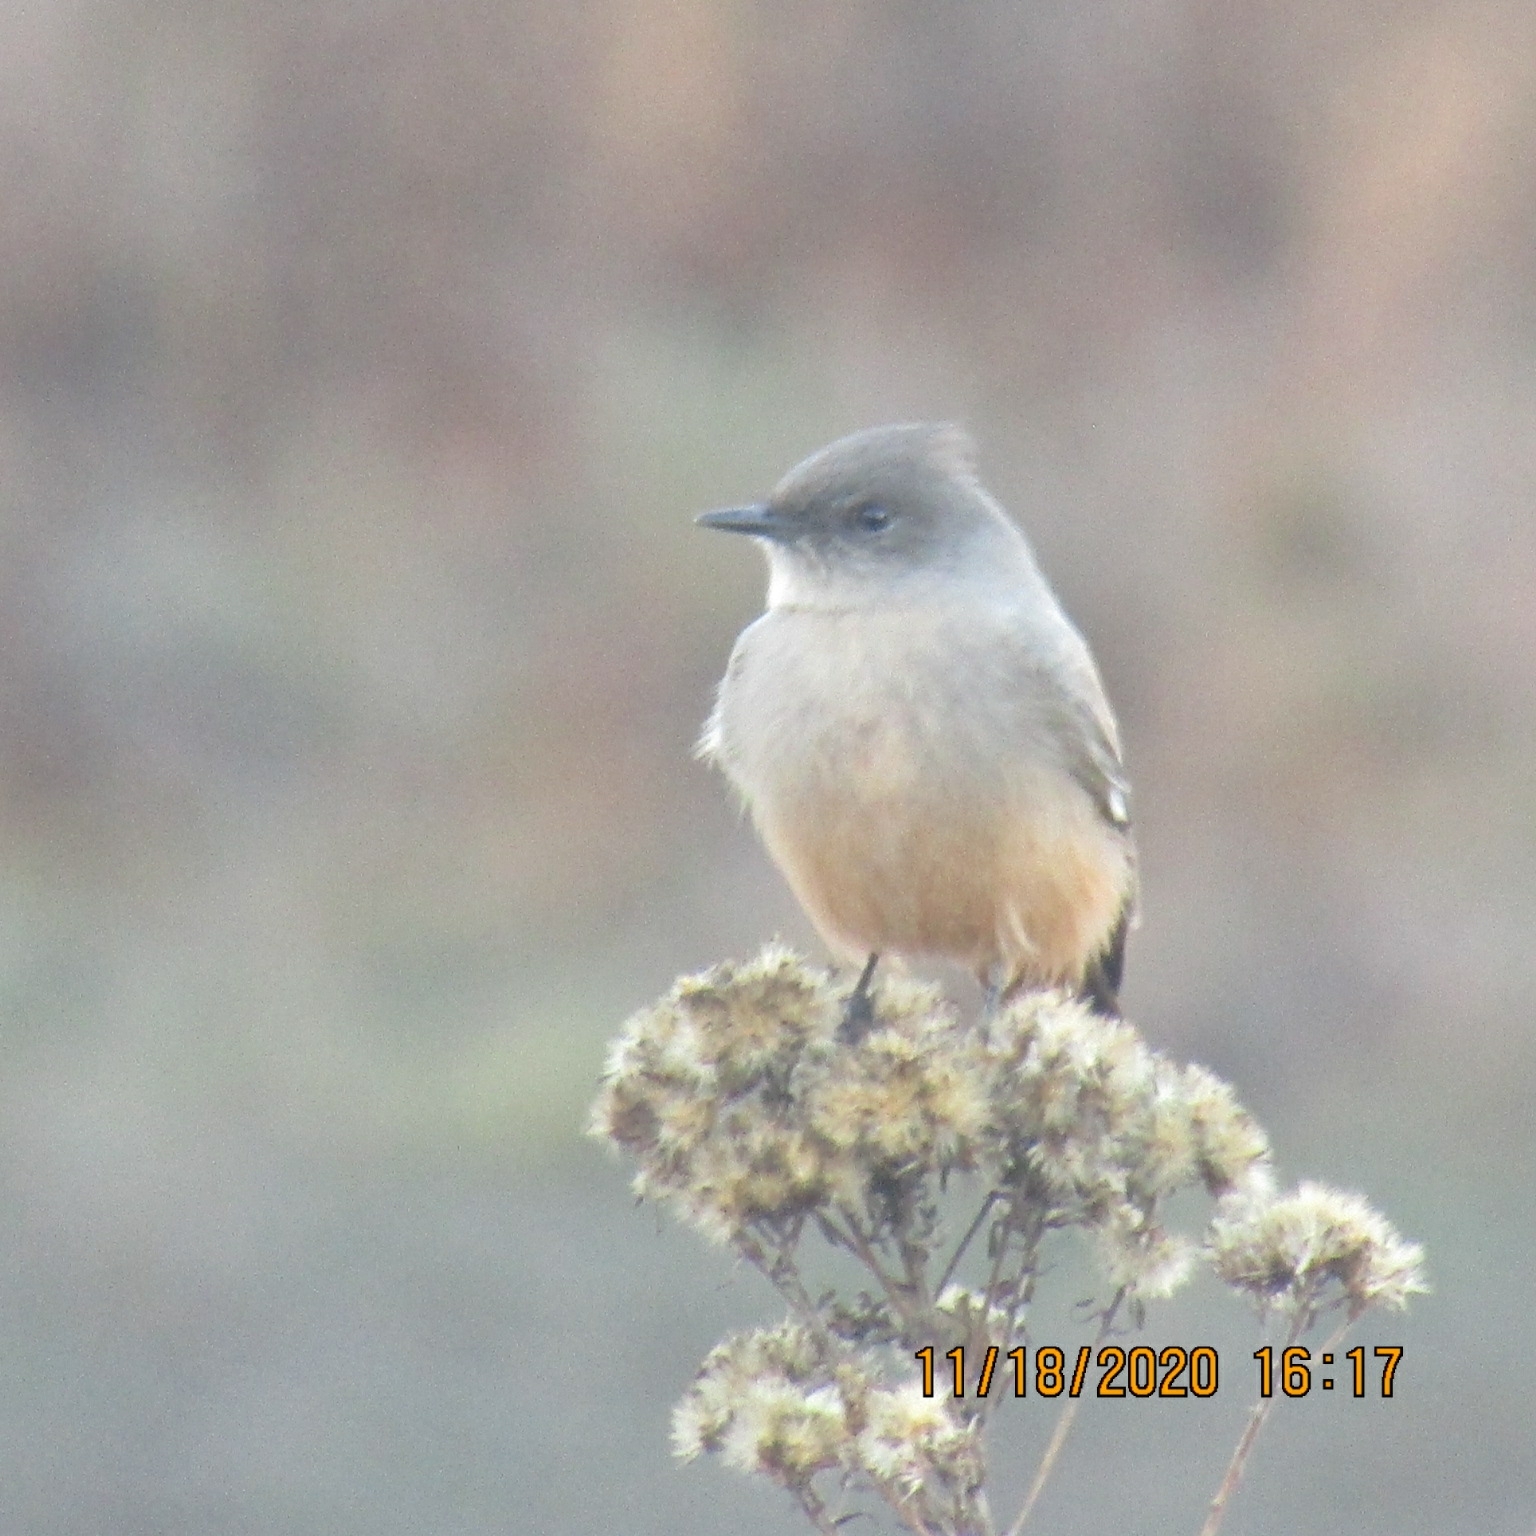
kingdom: Animalia
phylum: Chordata
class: Aves
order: Passeriformes
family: Tyrannidae
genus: Sayornis
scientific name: Sayornis saya
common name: Say's phoebe
